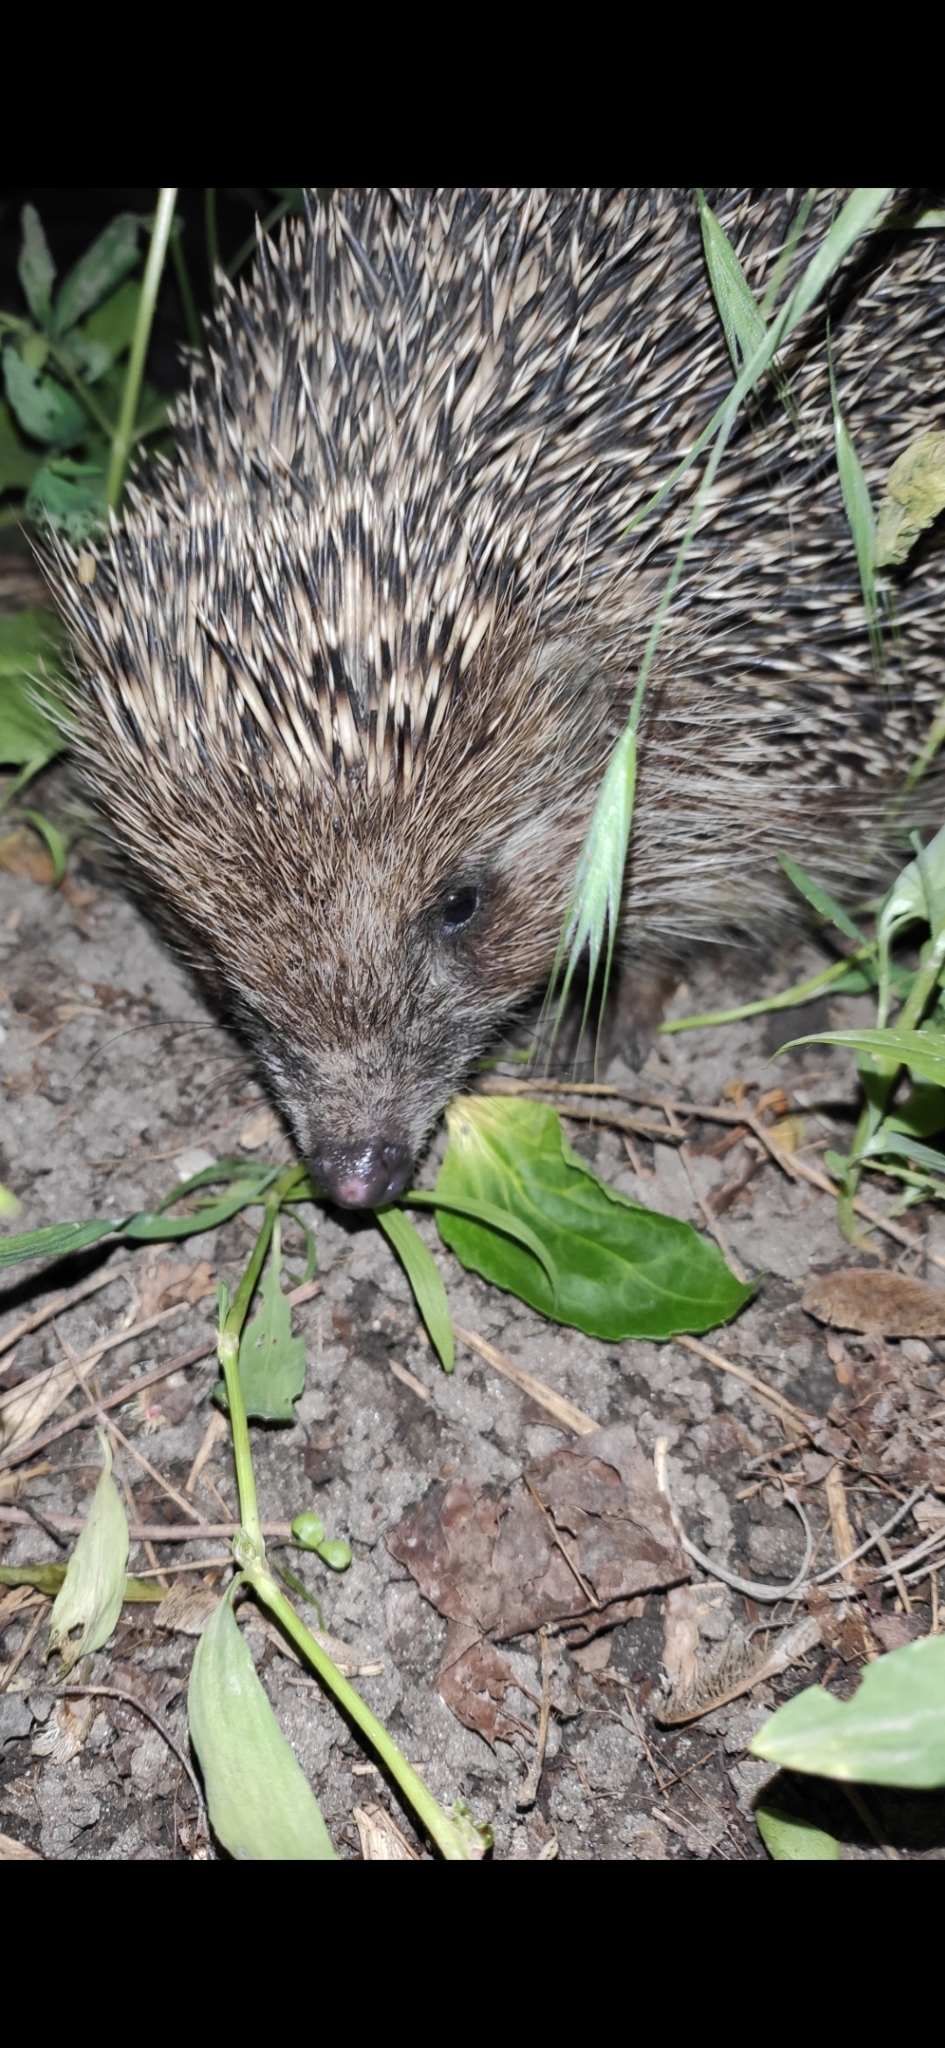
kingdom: Animalia
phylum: Chordata
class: Mammalia
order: Erinaceomorpha
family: Erinaceidae
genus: Erinaceus
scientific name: Erinaceus roumanicus
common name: Northern white-breasted hedgehog
